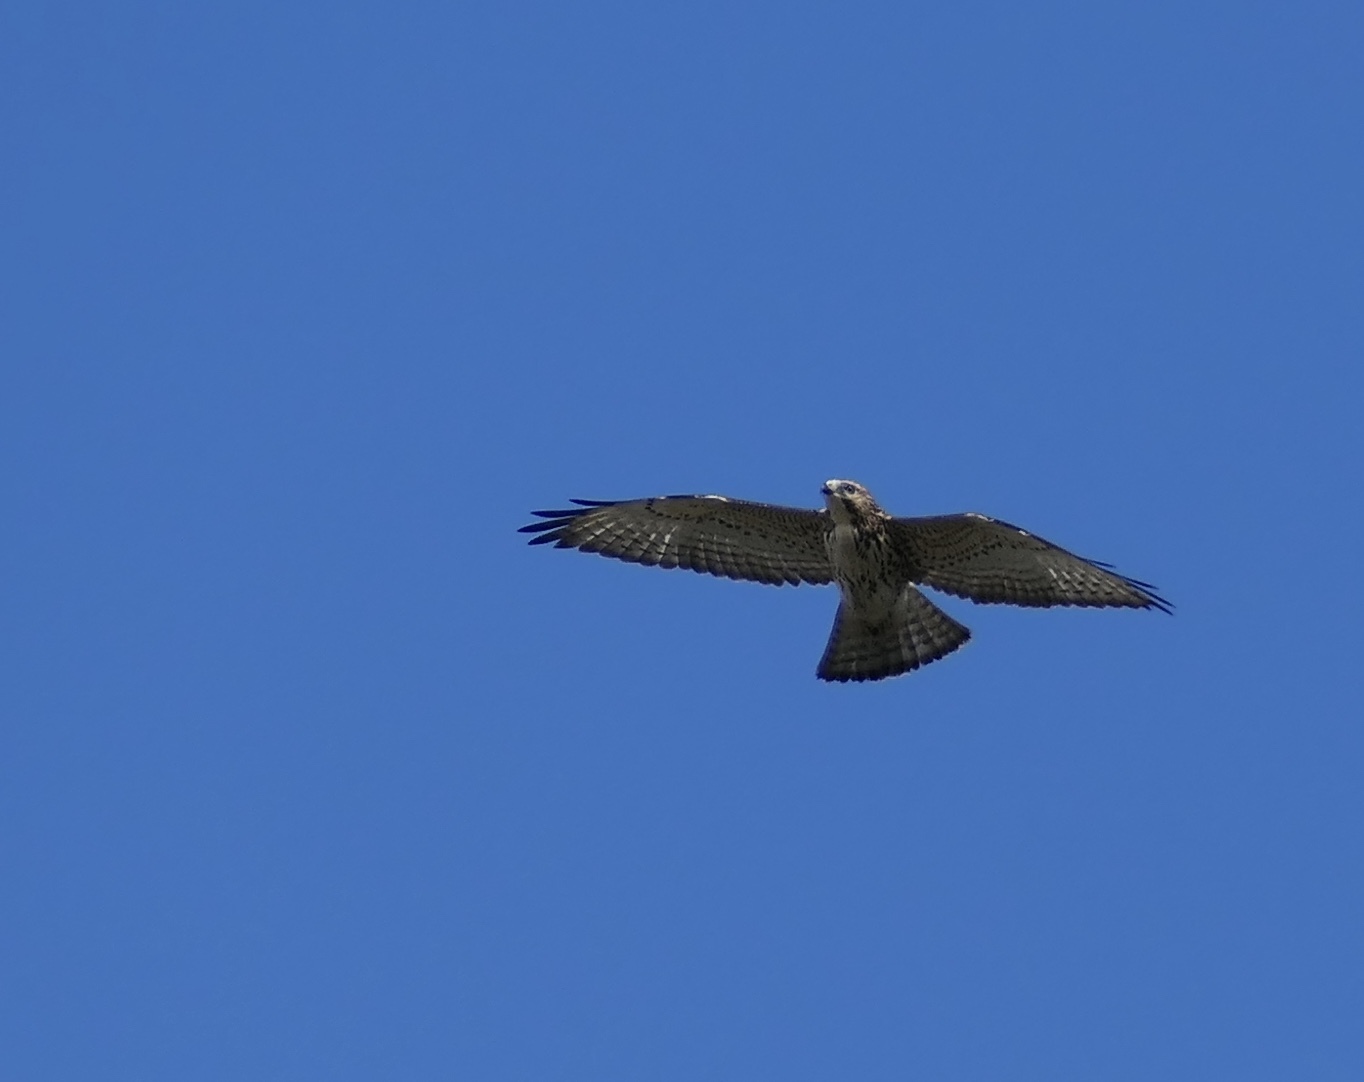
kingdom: Animalia
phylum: Chordata
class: Aves
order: Accipitriformes
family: Accipitridae
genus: Buteo
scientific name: Buteo platypterus
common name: Broad-winged hawk
